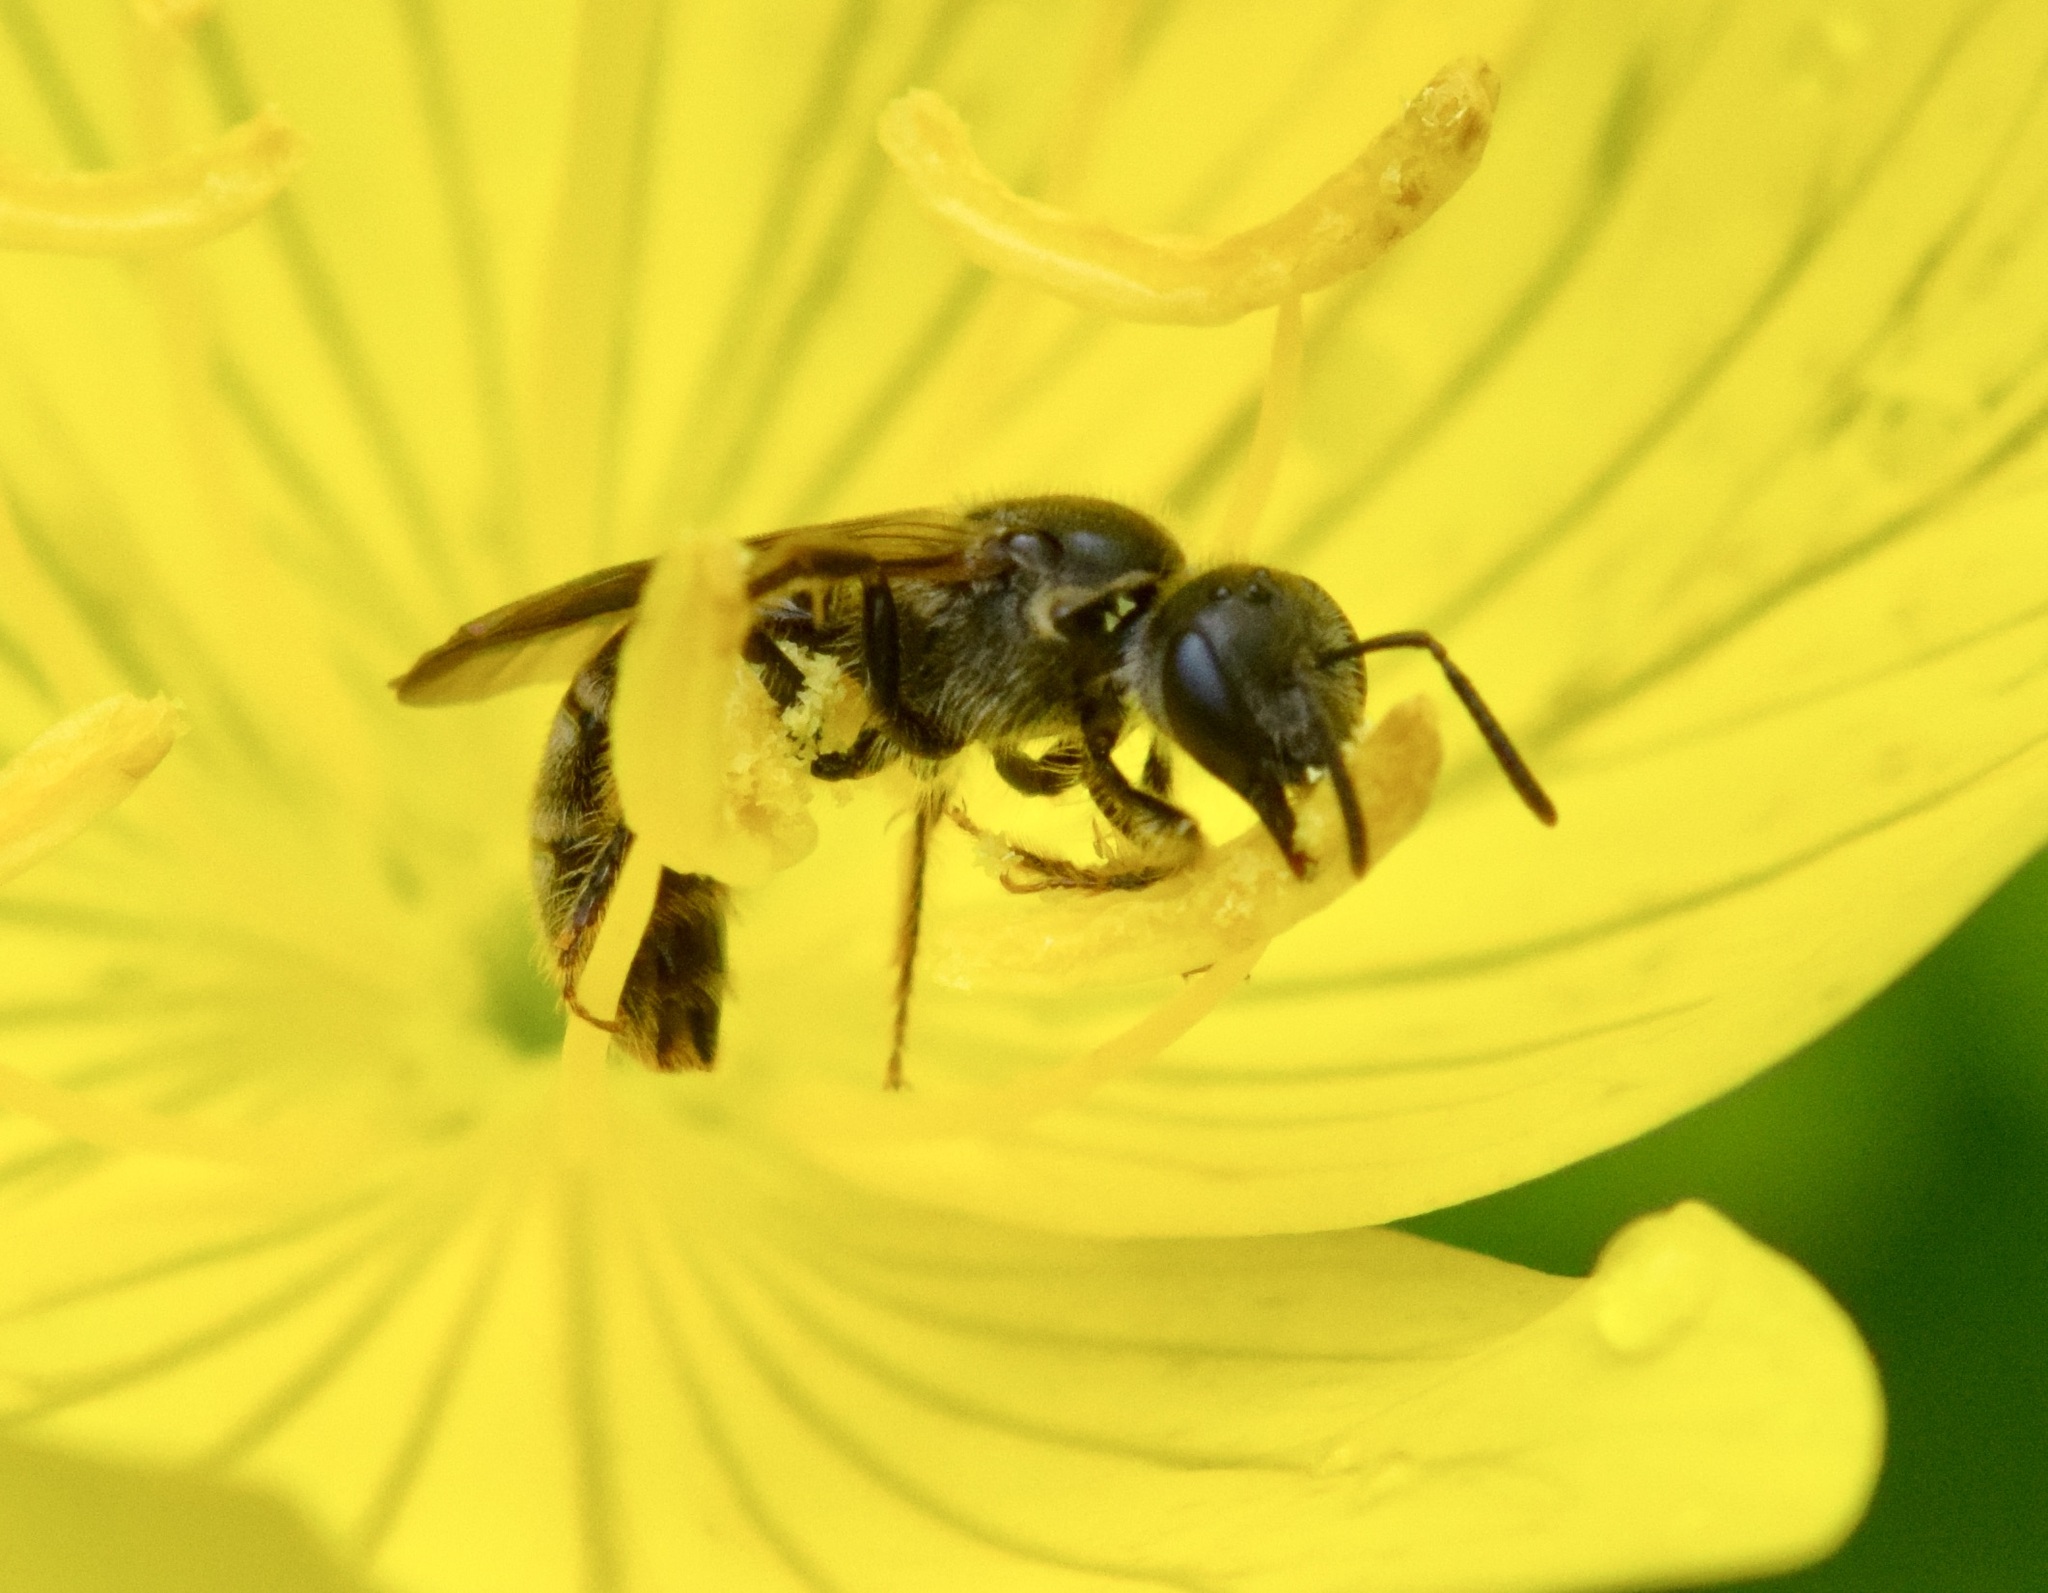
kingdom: Animalia
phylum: Arthropoda
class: Insecta
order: Hymenoptera
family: Halictidae
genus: Lasioglossum
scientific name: Lasioglossum oenotherae
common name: Evening primrose sweat bee
